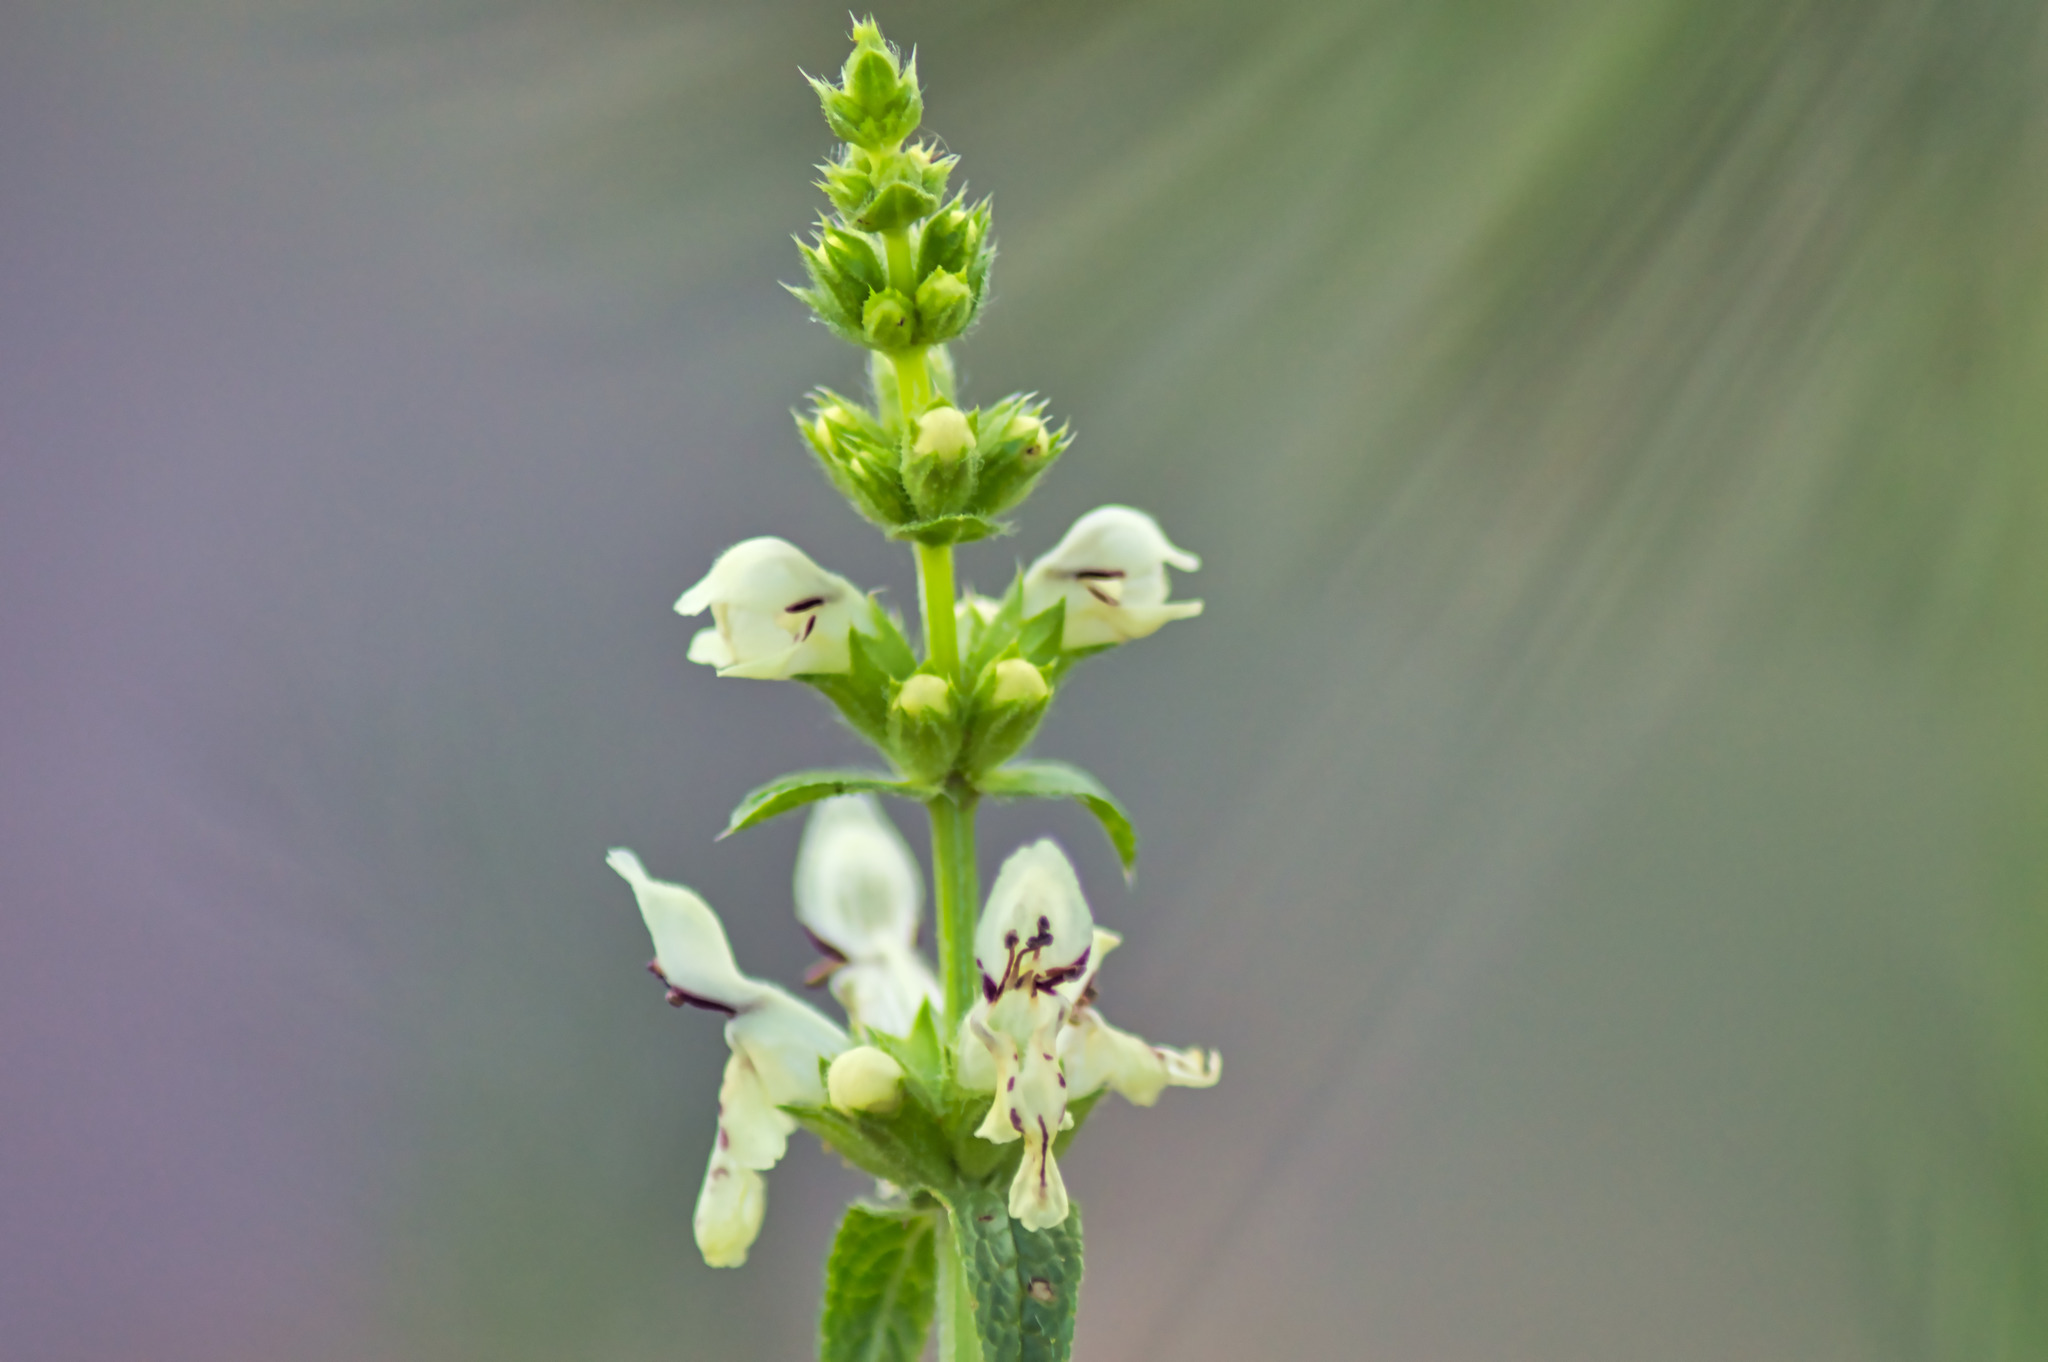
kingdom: Plantae
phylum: Tracheophyta
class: Magnoliopsida
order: Lamiales
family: Lamiaceae
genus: Stachys
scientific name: Stachys recta
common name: Perennial yellow-woundwort
